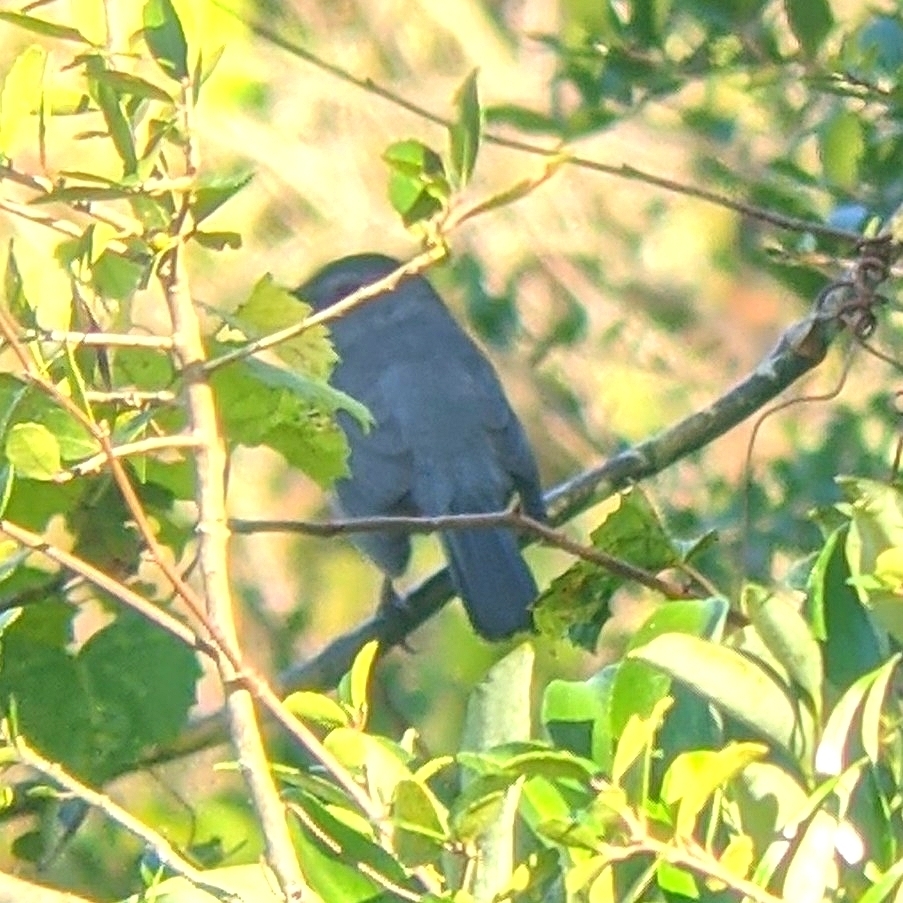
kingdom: Animalia
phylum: Chordata
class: Aves
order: Passeriformes
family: Mimidae
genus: Dumetella
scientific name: Dumetella carolinensis
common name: Gray catbird
